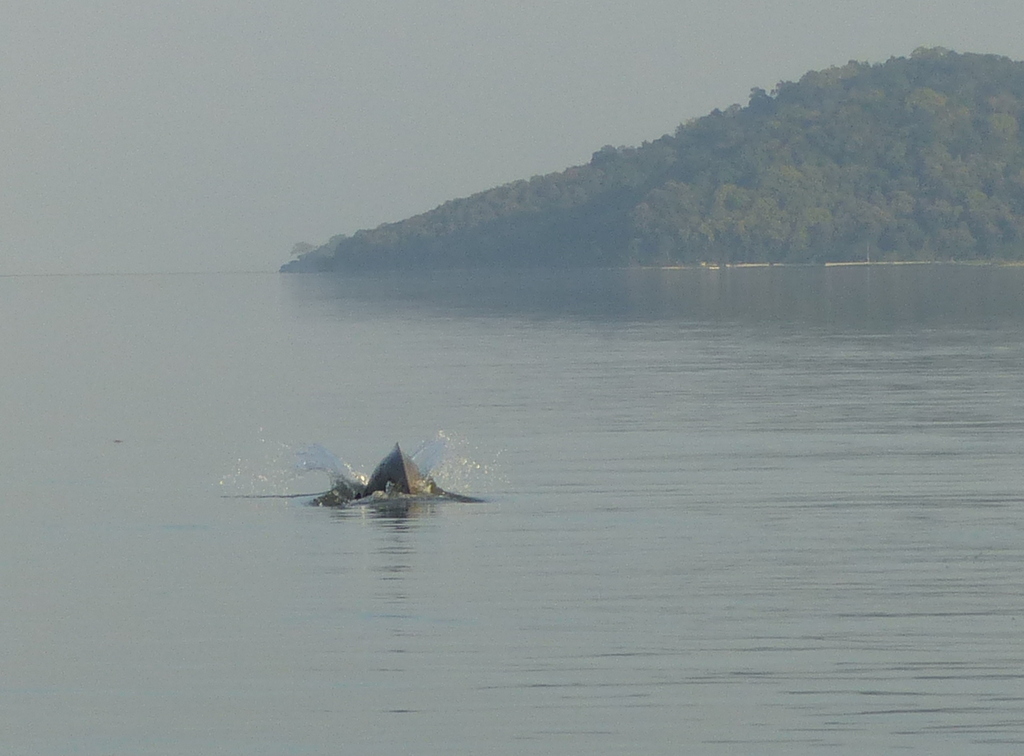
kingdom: Animalia
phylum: Chordata
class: Mammalia
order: Cetacea
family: Platanistidae
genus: Platanista
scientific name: Platanista gangetica
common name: Ganges river dolphin
